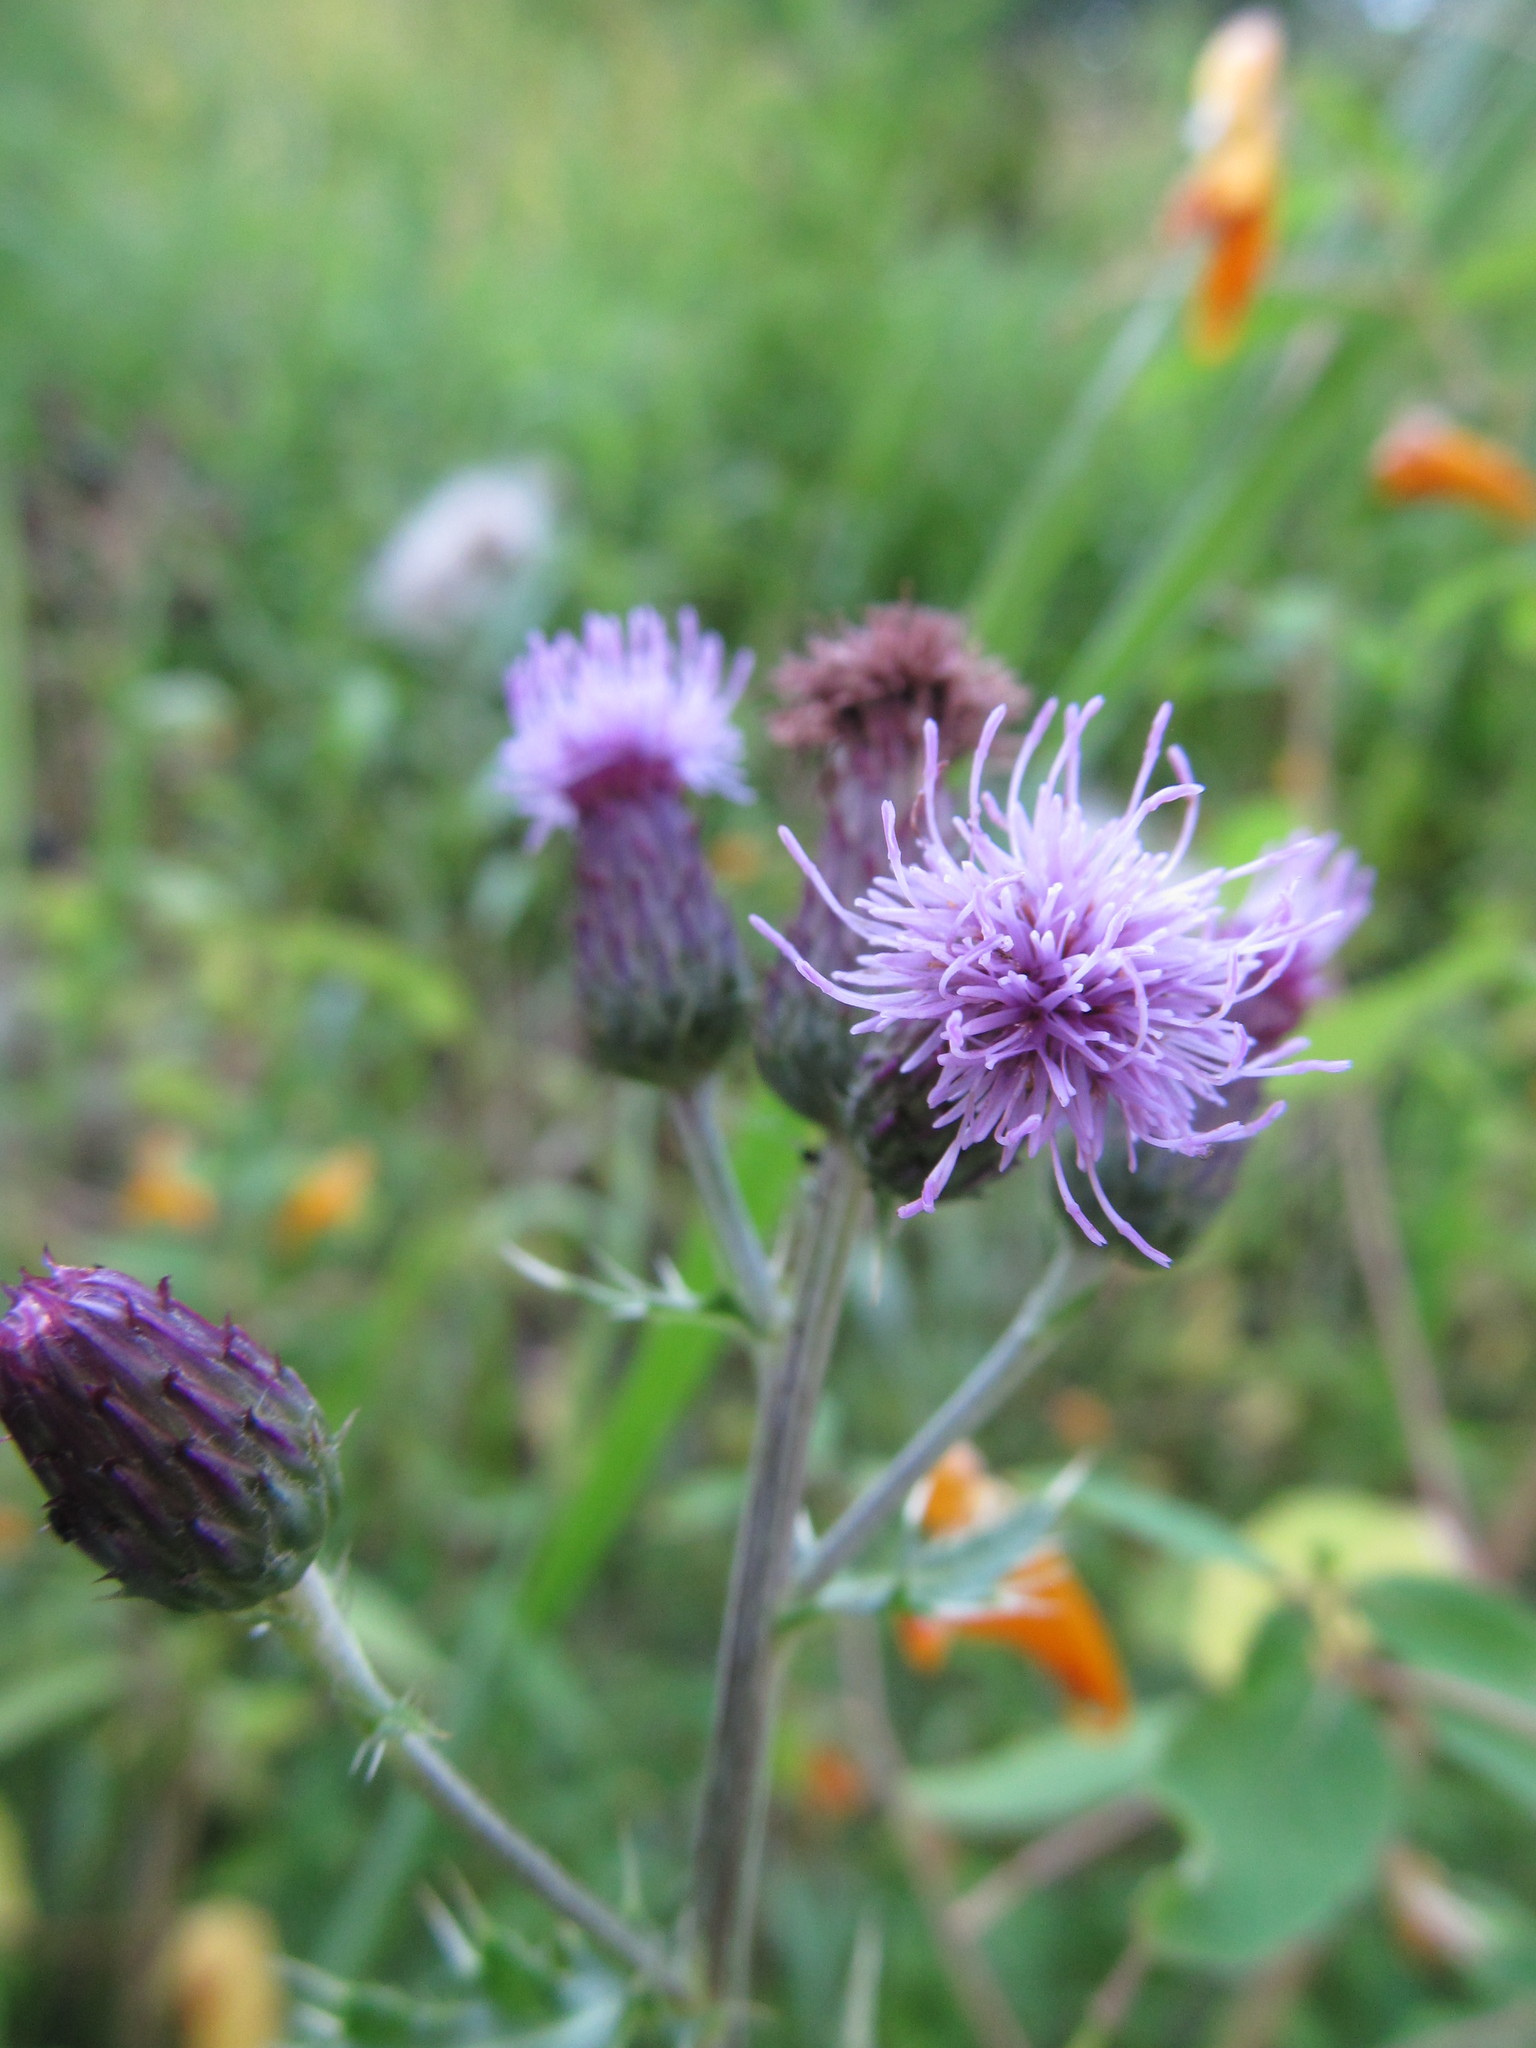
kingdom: Plantae
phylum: Tracheophyta
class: Magnoliopsida
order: Asterales
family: Asteraceae
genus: Cirsium
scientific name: Cirsium arvense
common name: Creeping thistle
